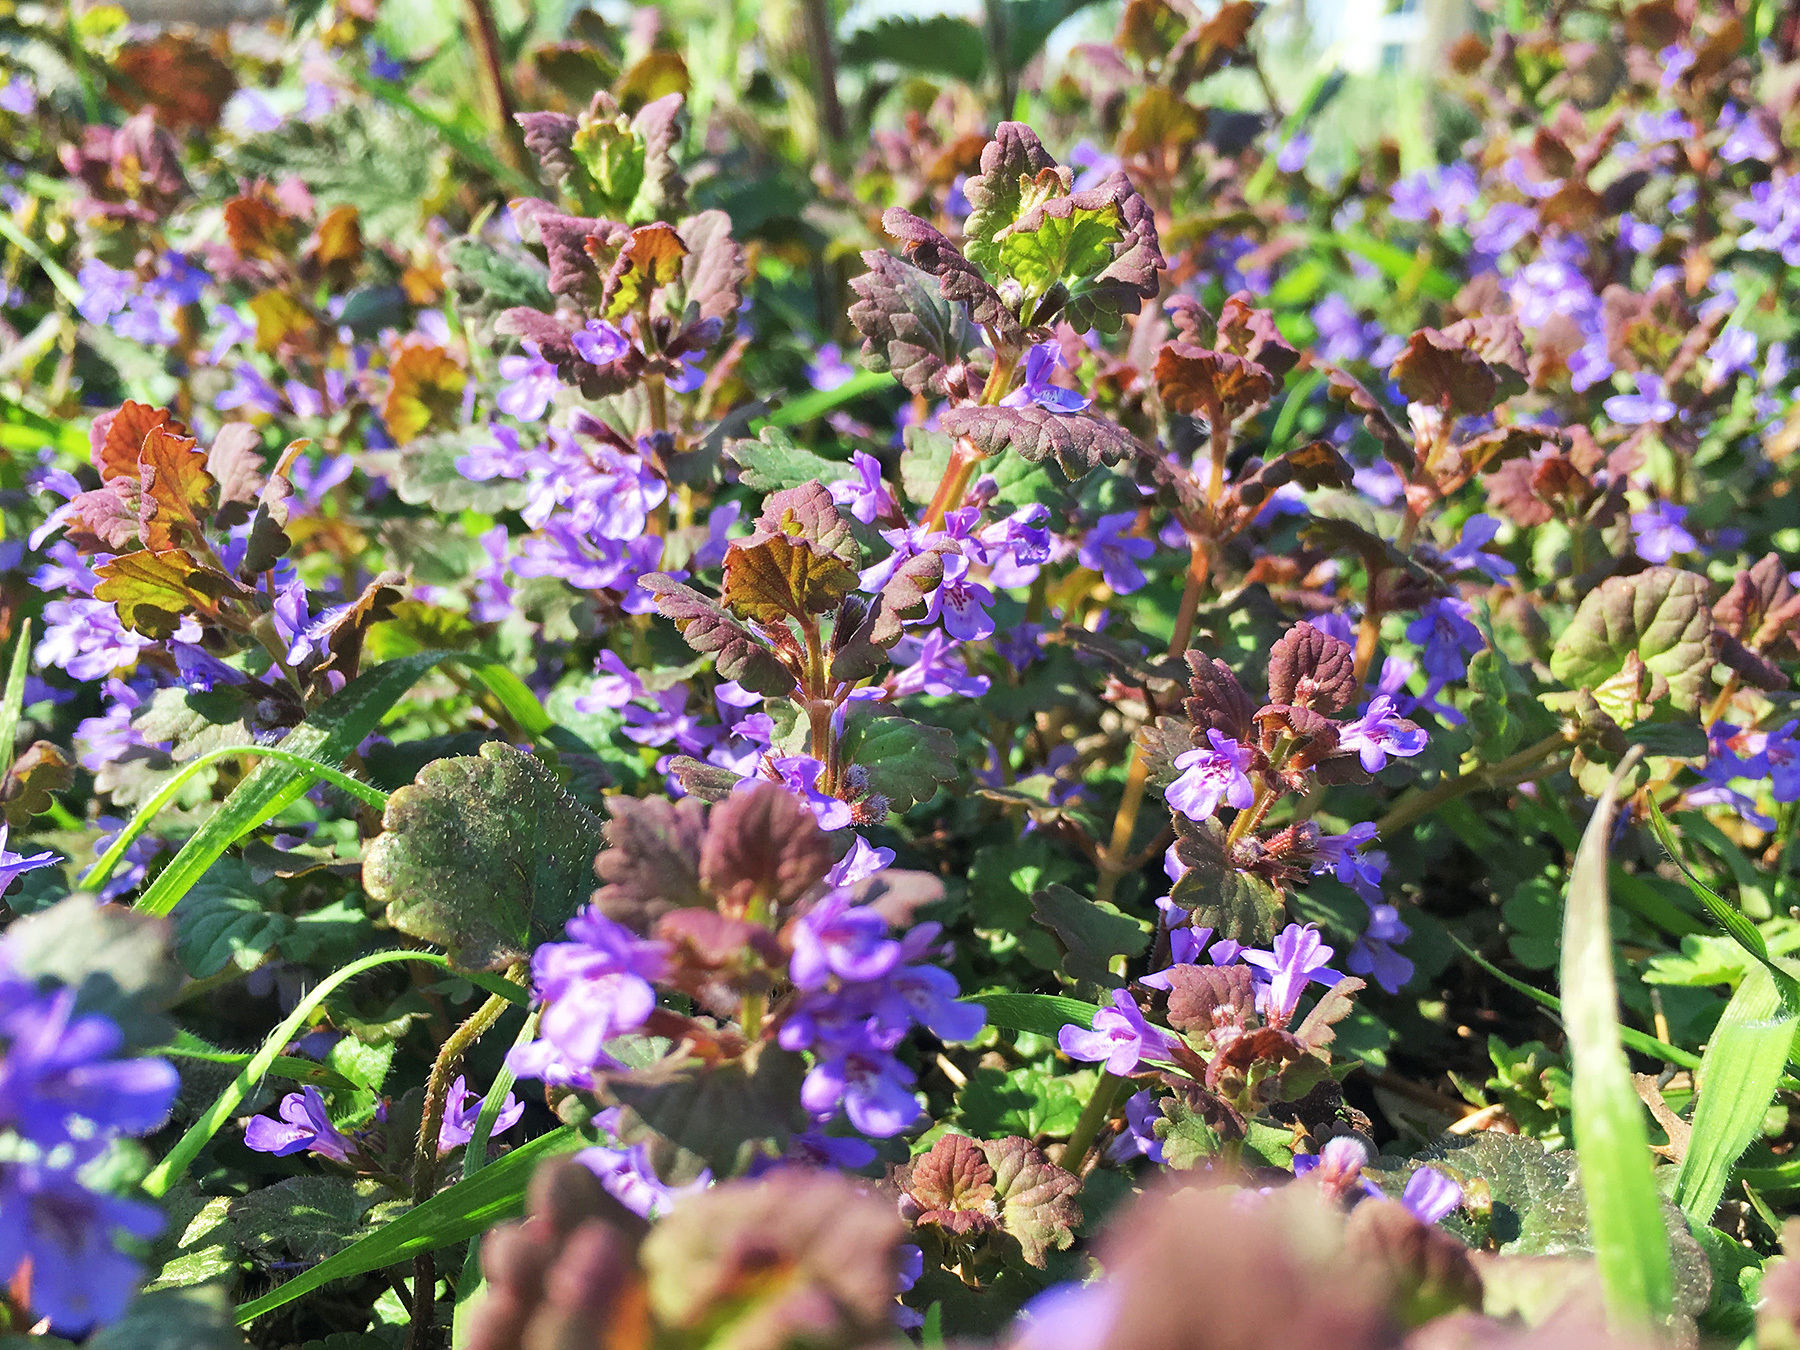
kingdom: Plantae
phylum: Tracheophyta
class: Magnoliopsida
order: Lamiales
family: Lamiaceae
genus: Glechoma
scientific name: Glechoma hederacea
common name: Ground ivy
